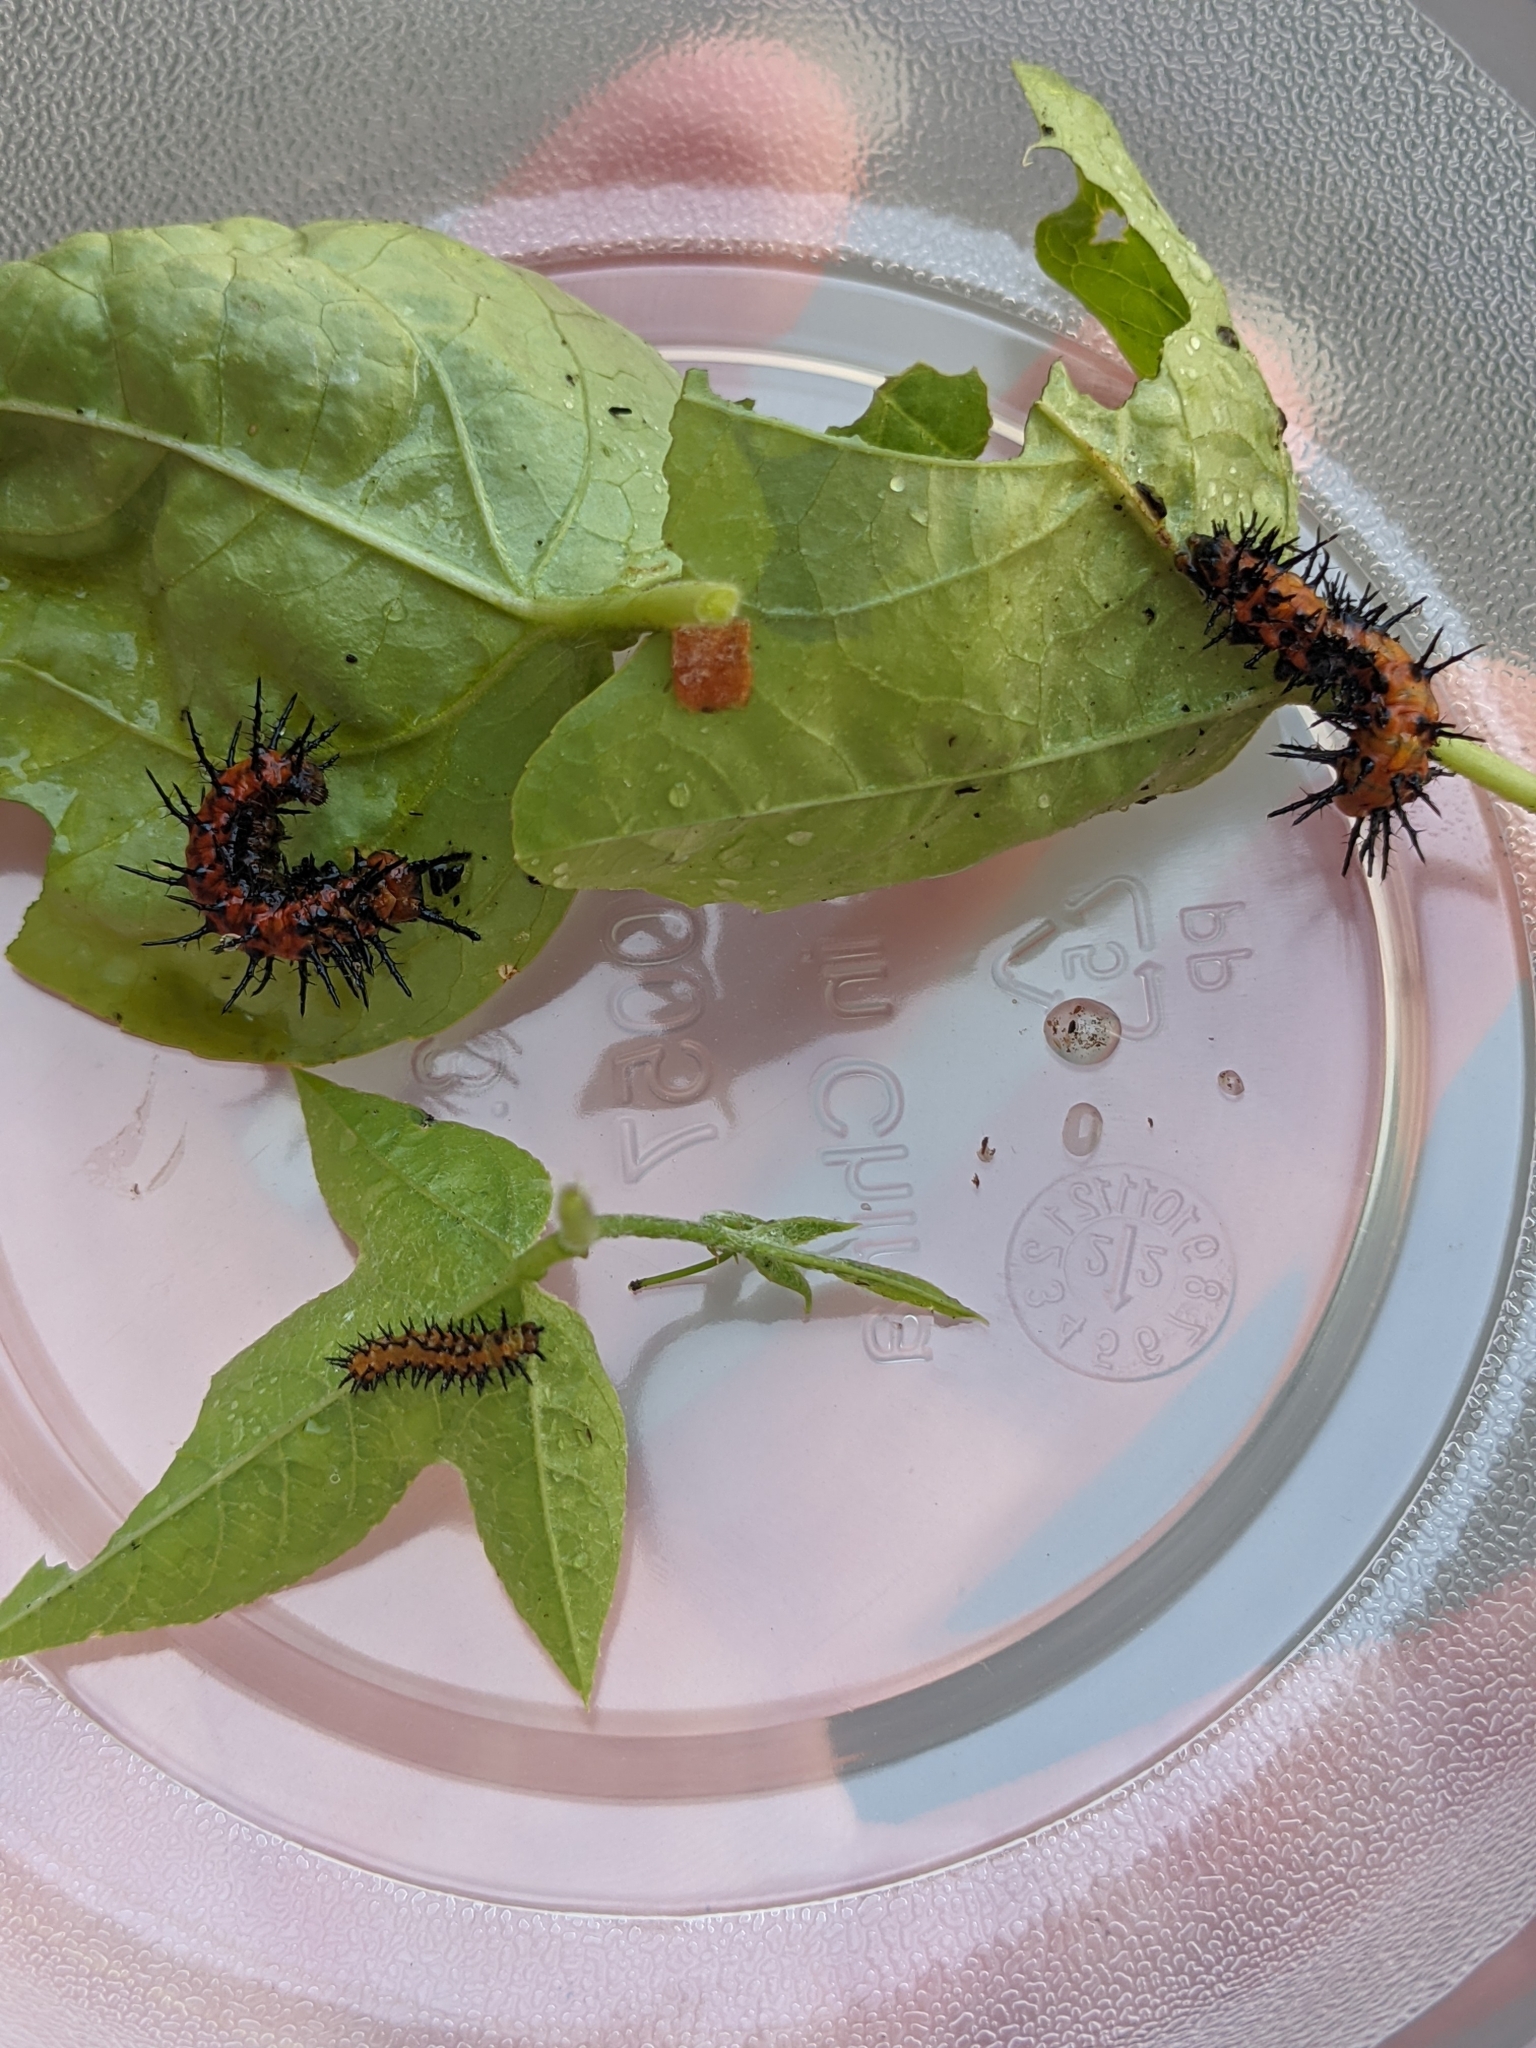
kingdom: Animalia
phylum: Arthropoda
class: Insecta
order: Lepidoptera
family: Nymphalidae
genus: Dione
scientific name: Dione vanillae
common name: Gulf fritillary
